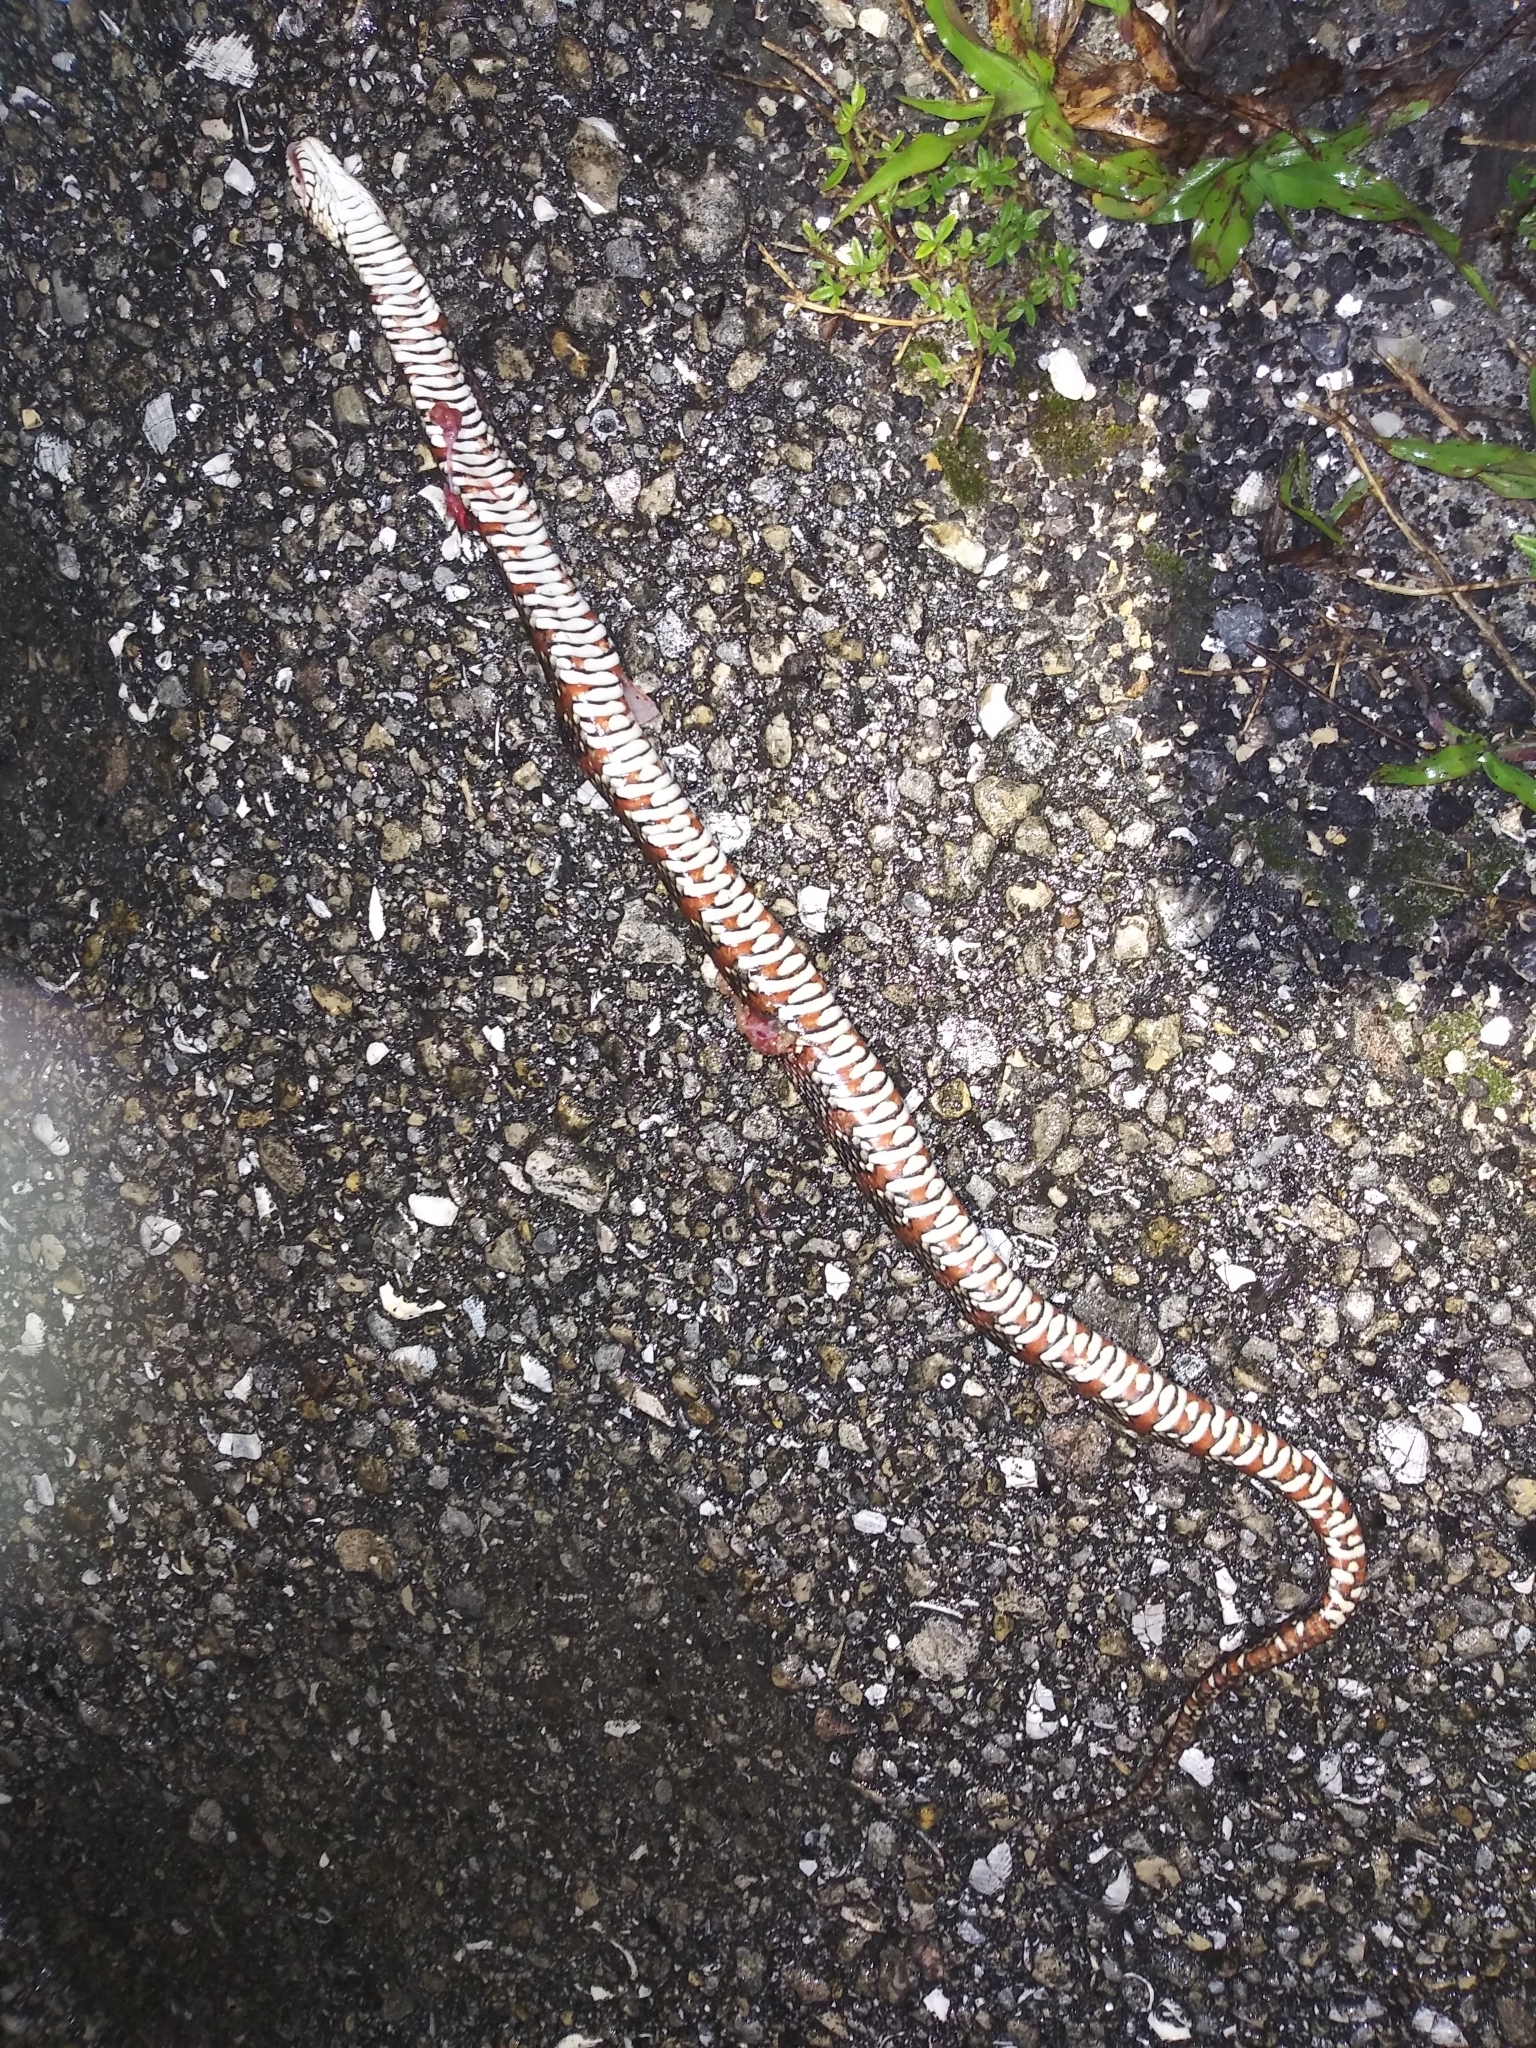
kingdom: Animalia
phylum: Chordata
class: Squamata
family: Colubridae
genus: Nerodia
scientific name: Nerodia fasciata
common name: Southern water snake
